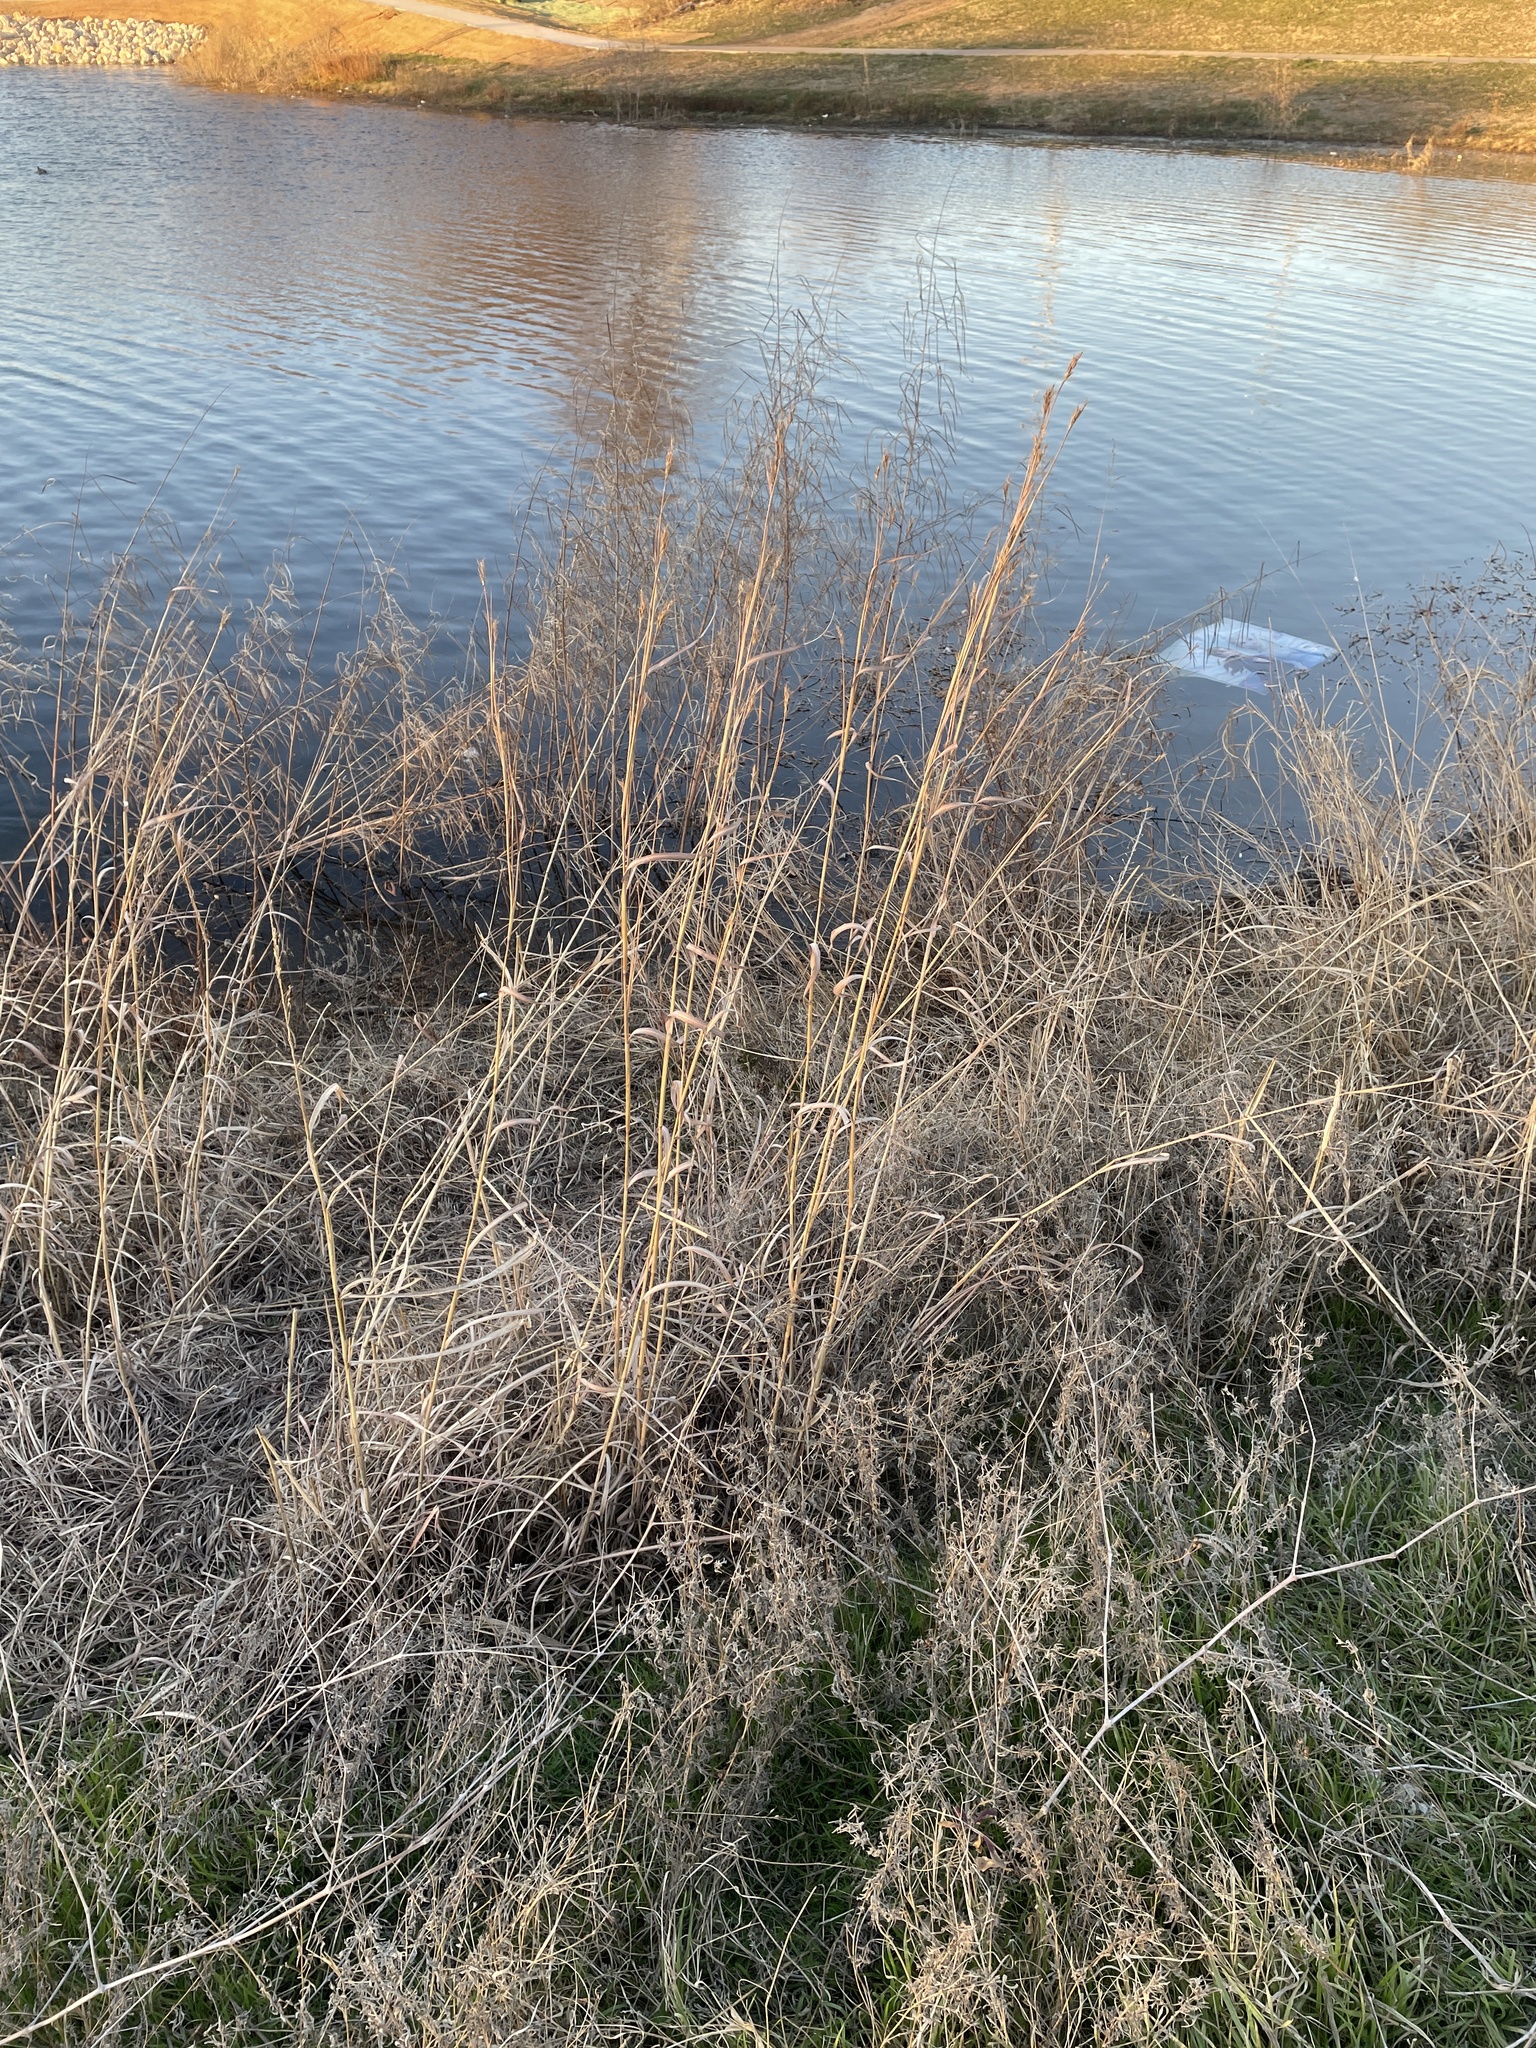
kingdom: Plantae
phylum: Tracheophyta
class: Liliopsida
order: Poales
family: Poaceae
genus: Andropogon
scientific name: Andropogon gerardi
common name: Big bluestem
